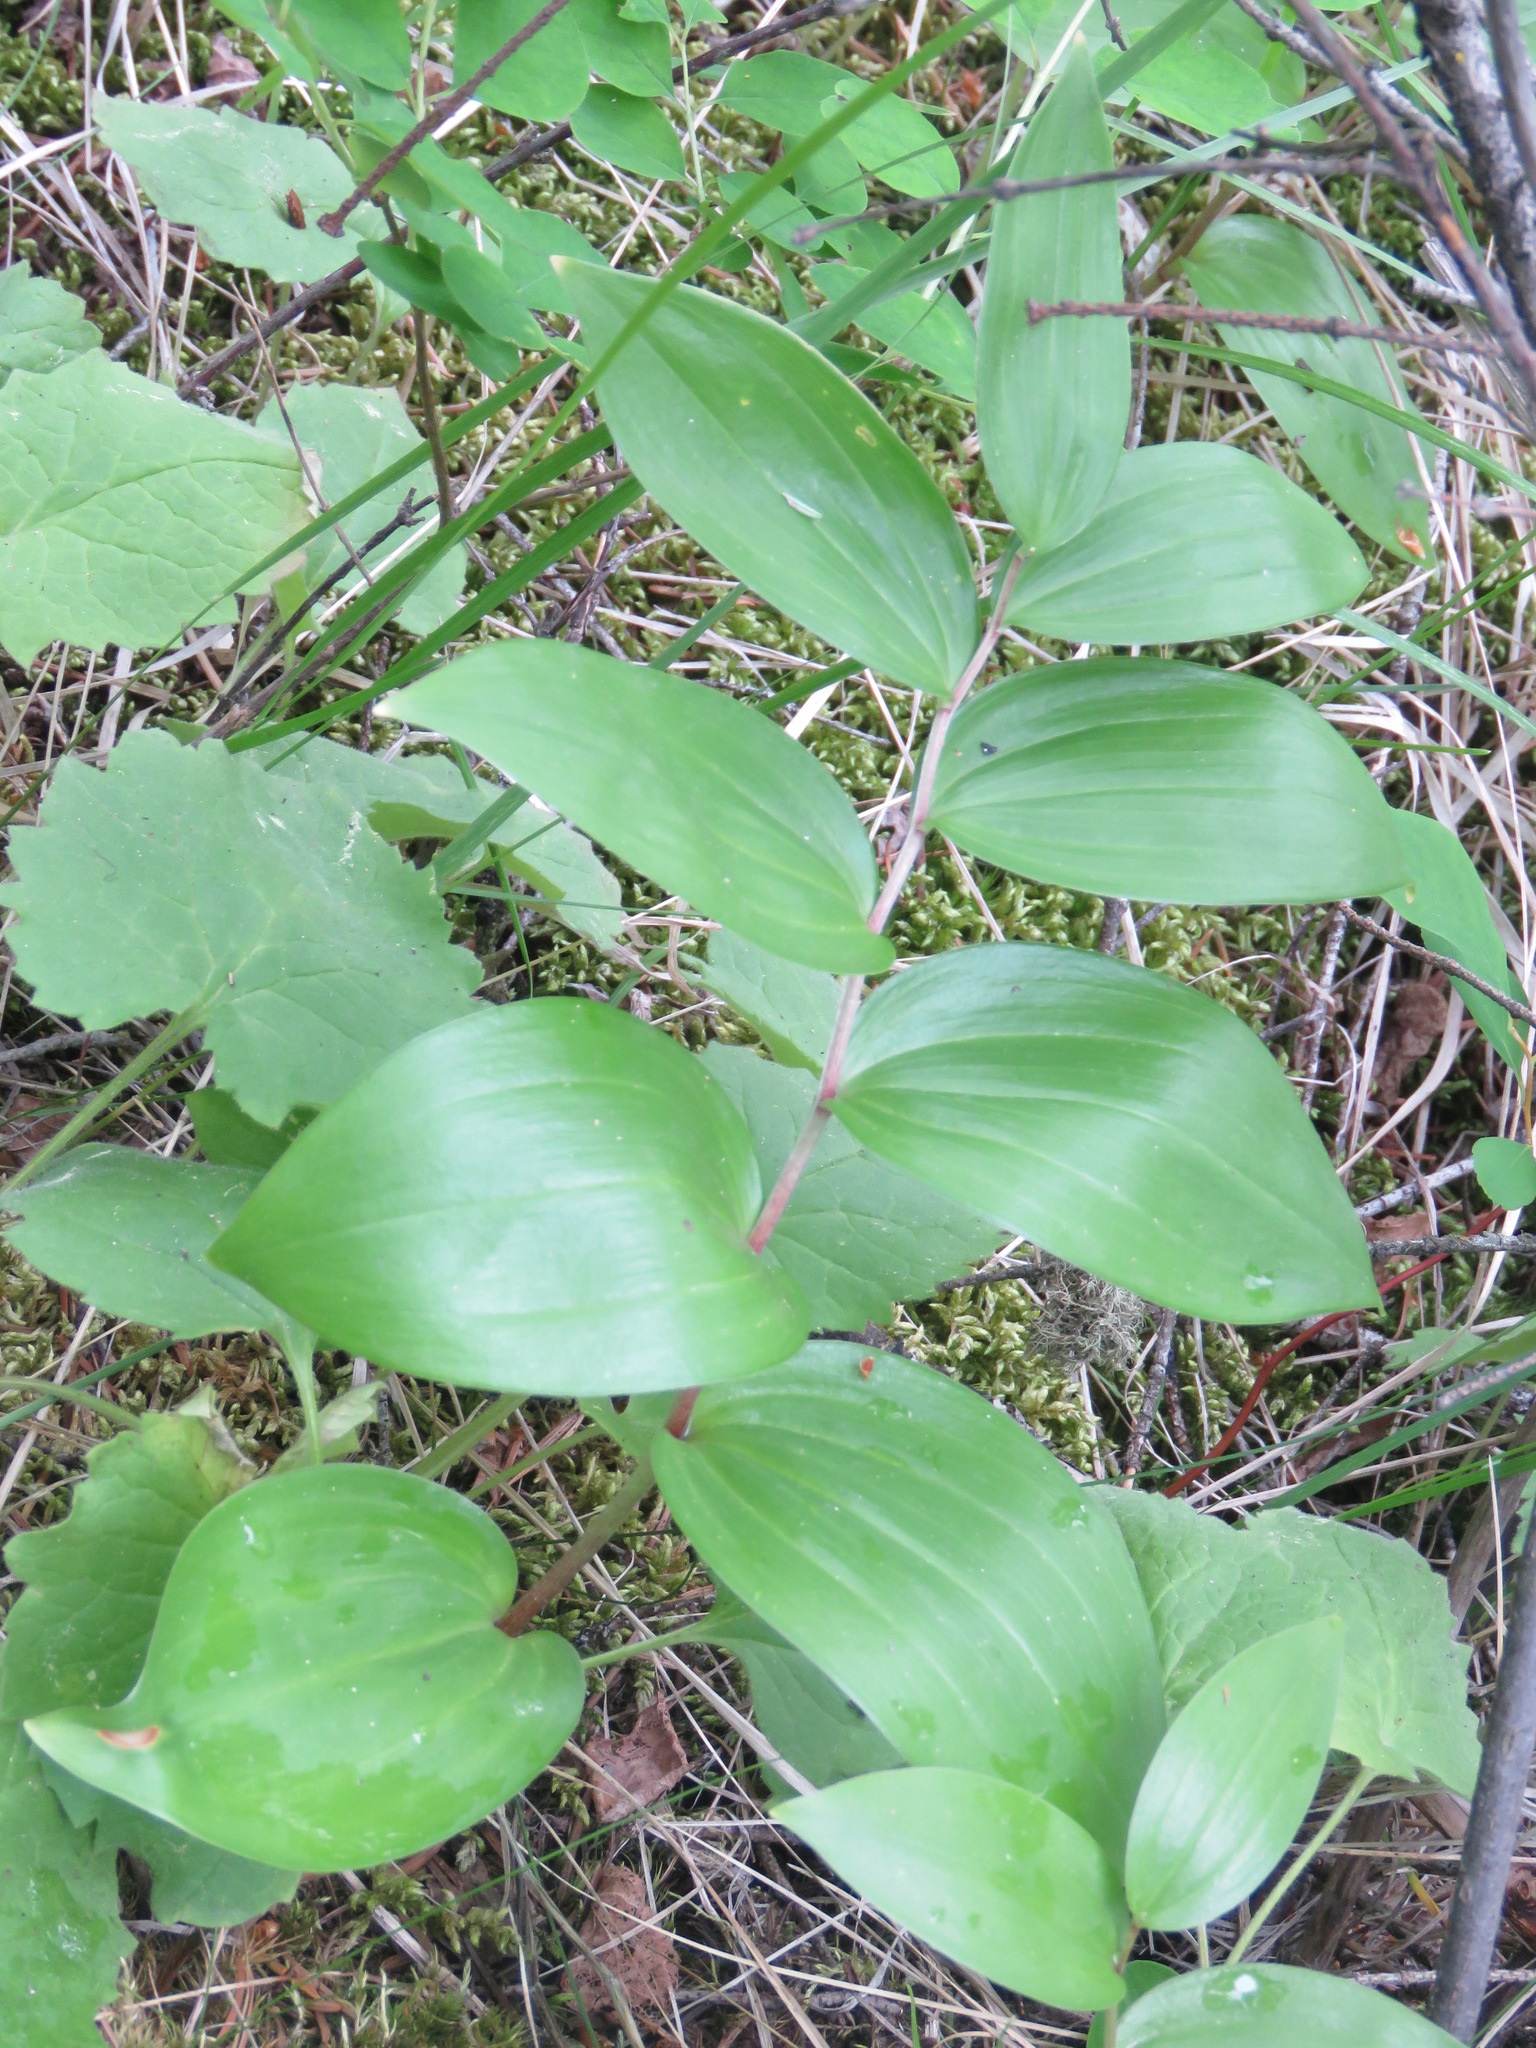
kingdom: Plantae
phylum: Tracheophyta
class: Liliopsida
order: Asparagales
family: Asparagaceae
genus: Maianthemum
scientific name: Maianthemum racemosum
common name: False spikenard
